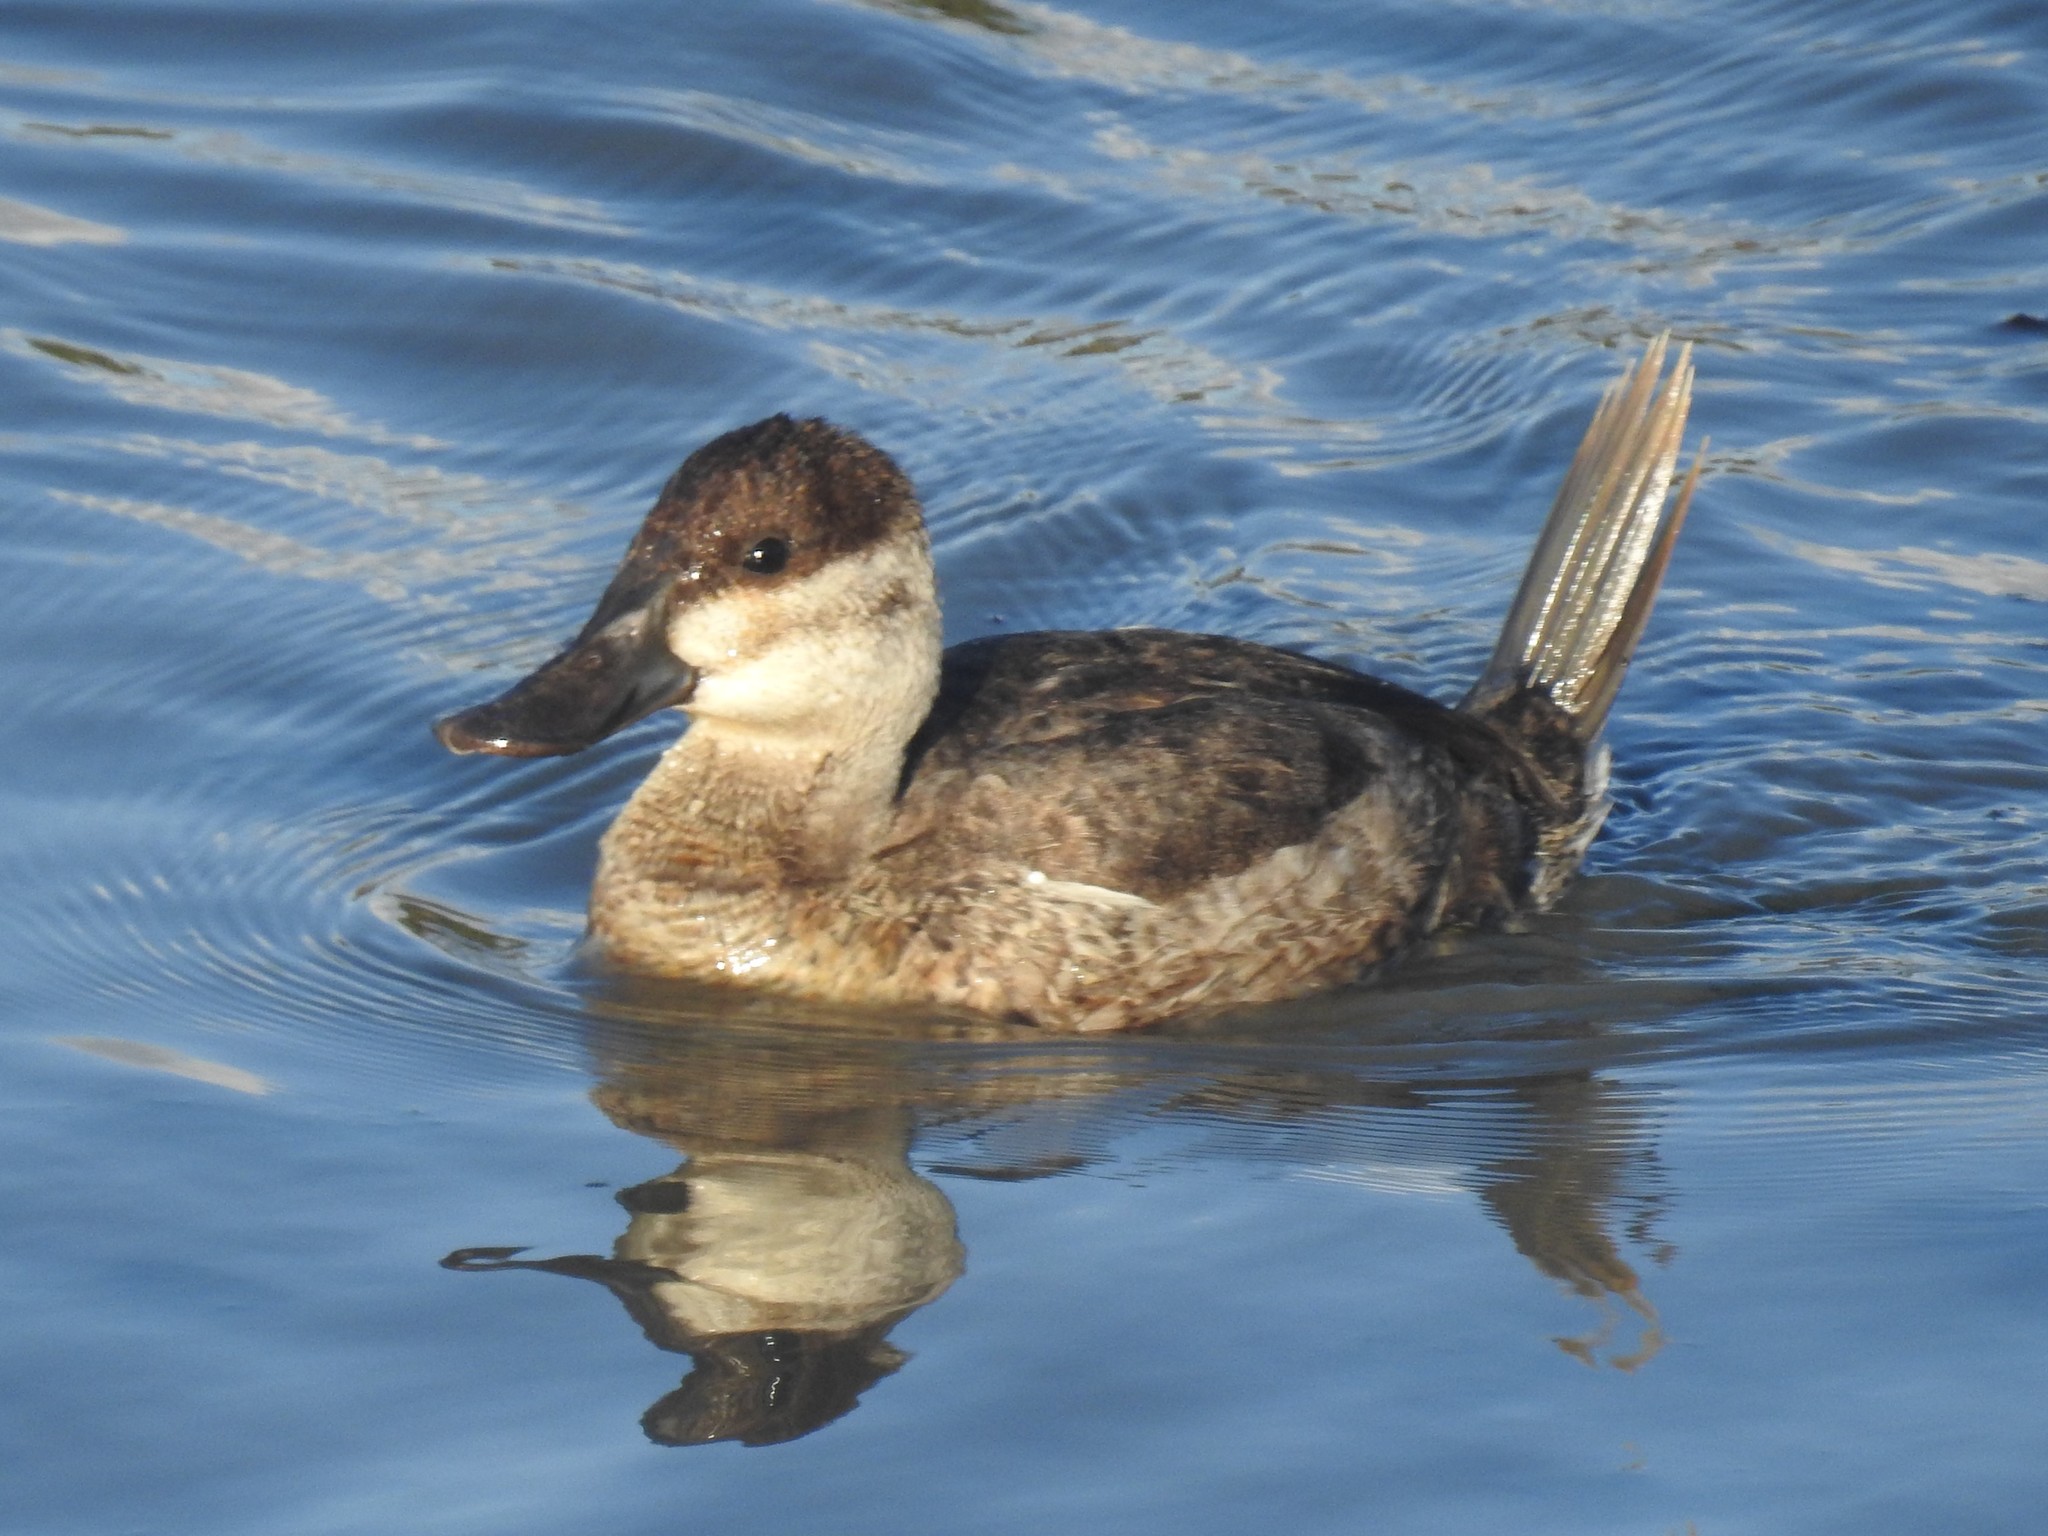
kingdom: Animalia
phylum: Chordata
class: Aves
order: Anseriformes
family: Anatidae
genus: Oxyura
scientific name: Oxyura jamaicensis
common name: Ruddy duck
